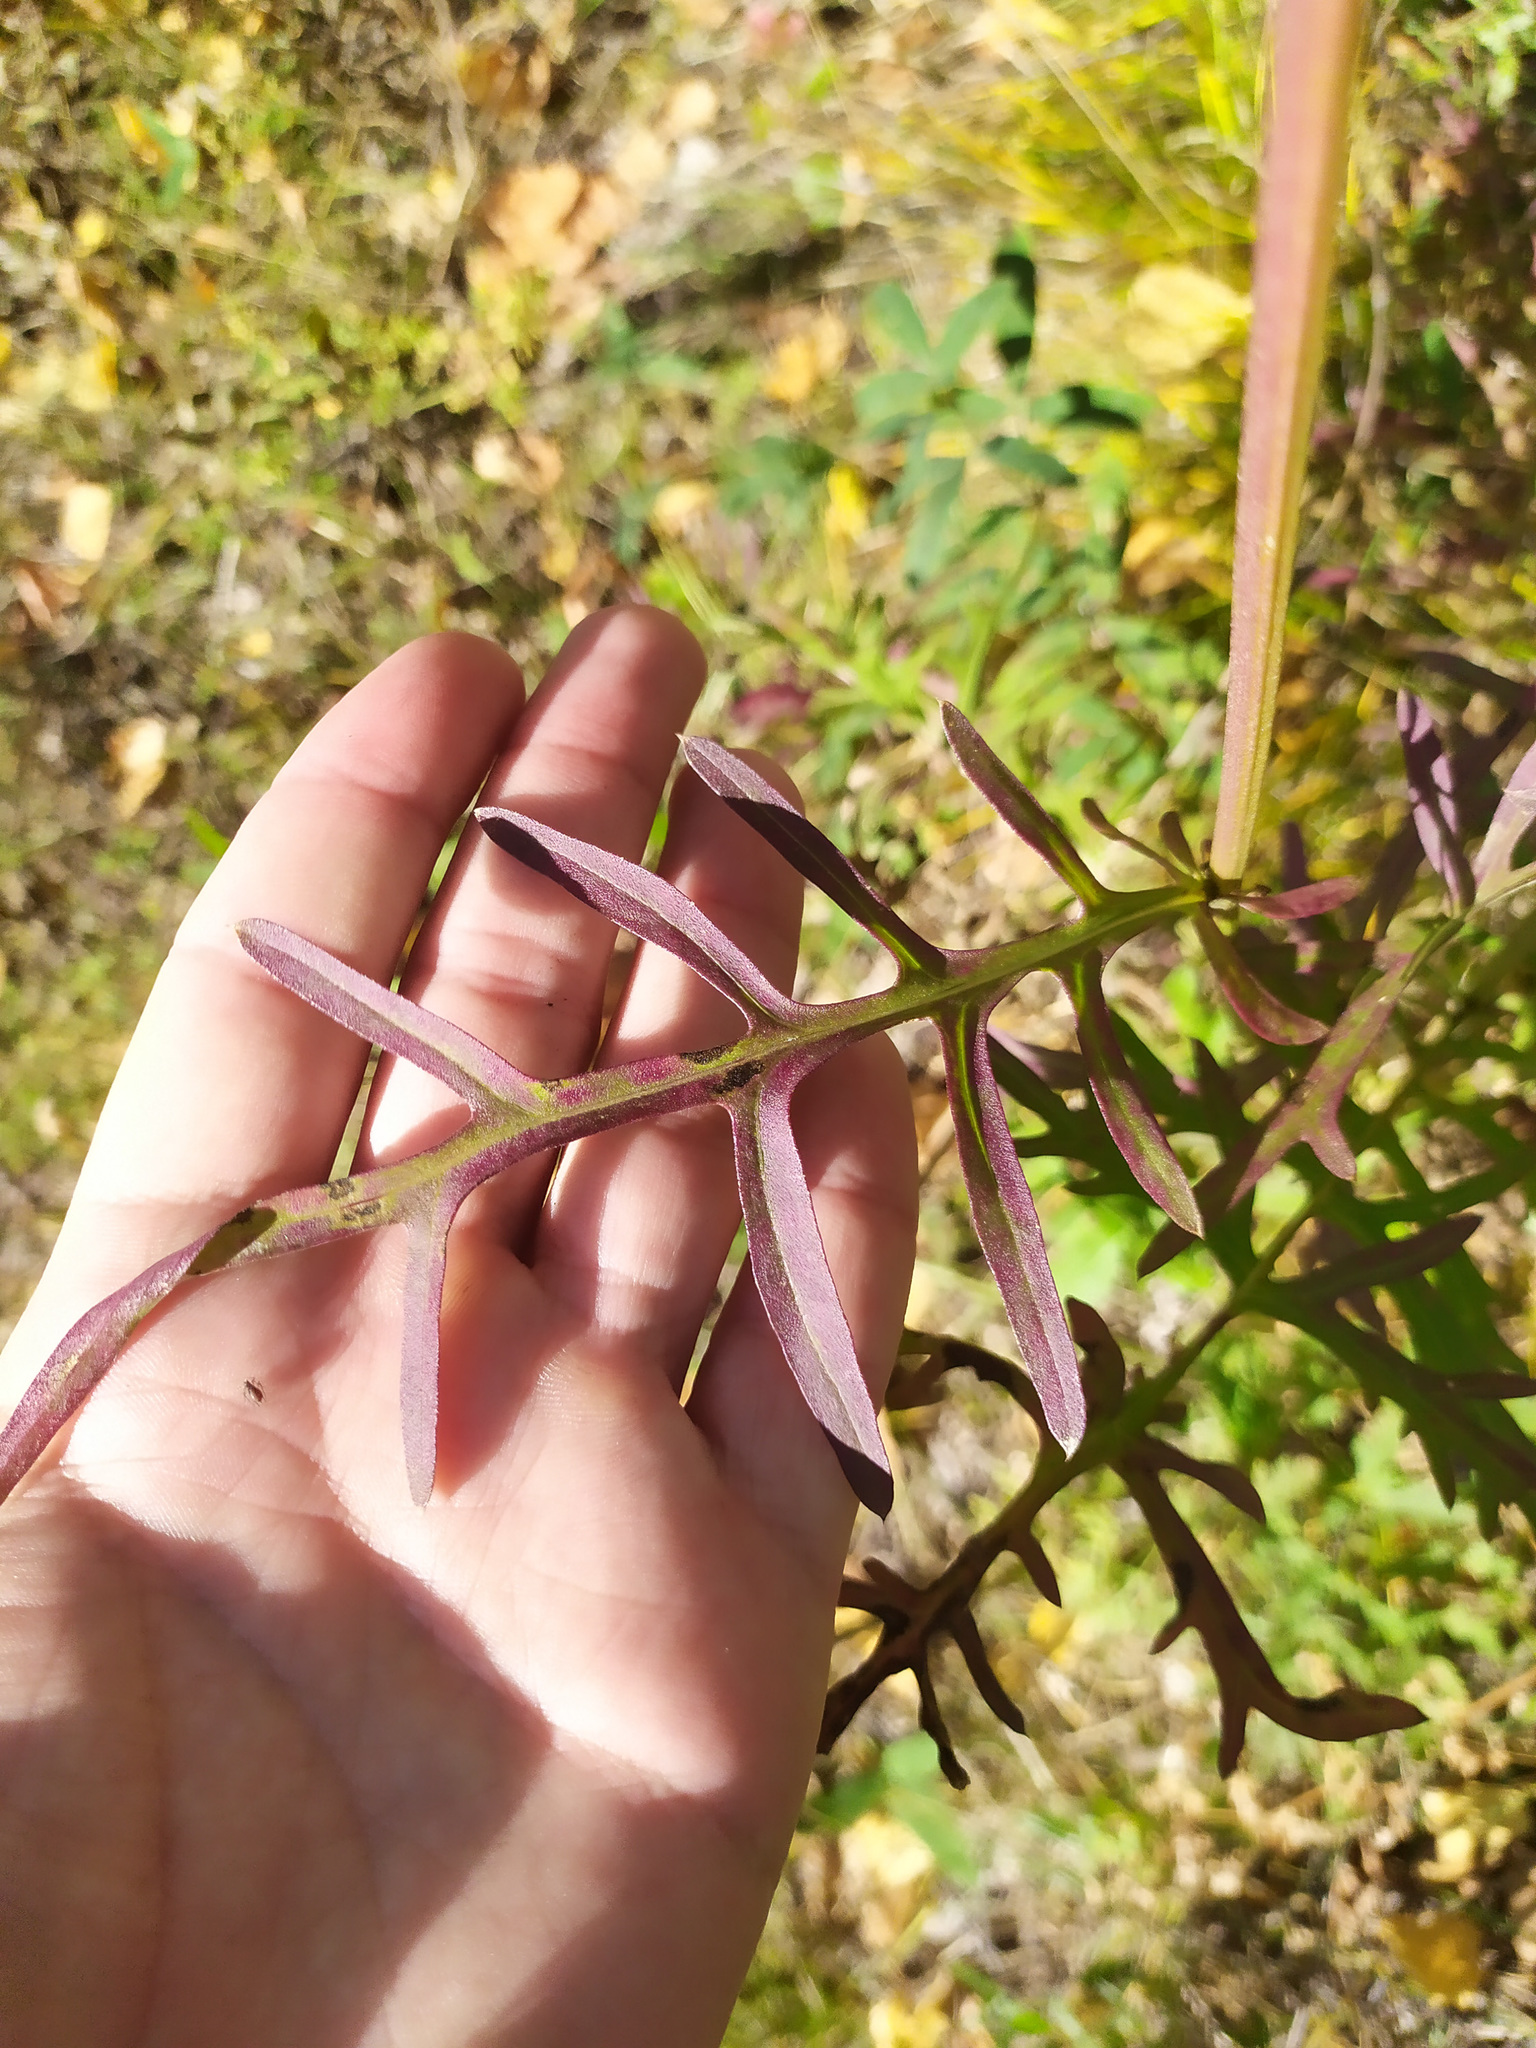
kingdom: Plantae
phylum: Tracheophyta
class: Magnoliopsida
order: Asterales
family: Asteraceae
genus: Centaurea
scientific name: Centaurea scabiosa
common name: Greater knapweed
